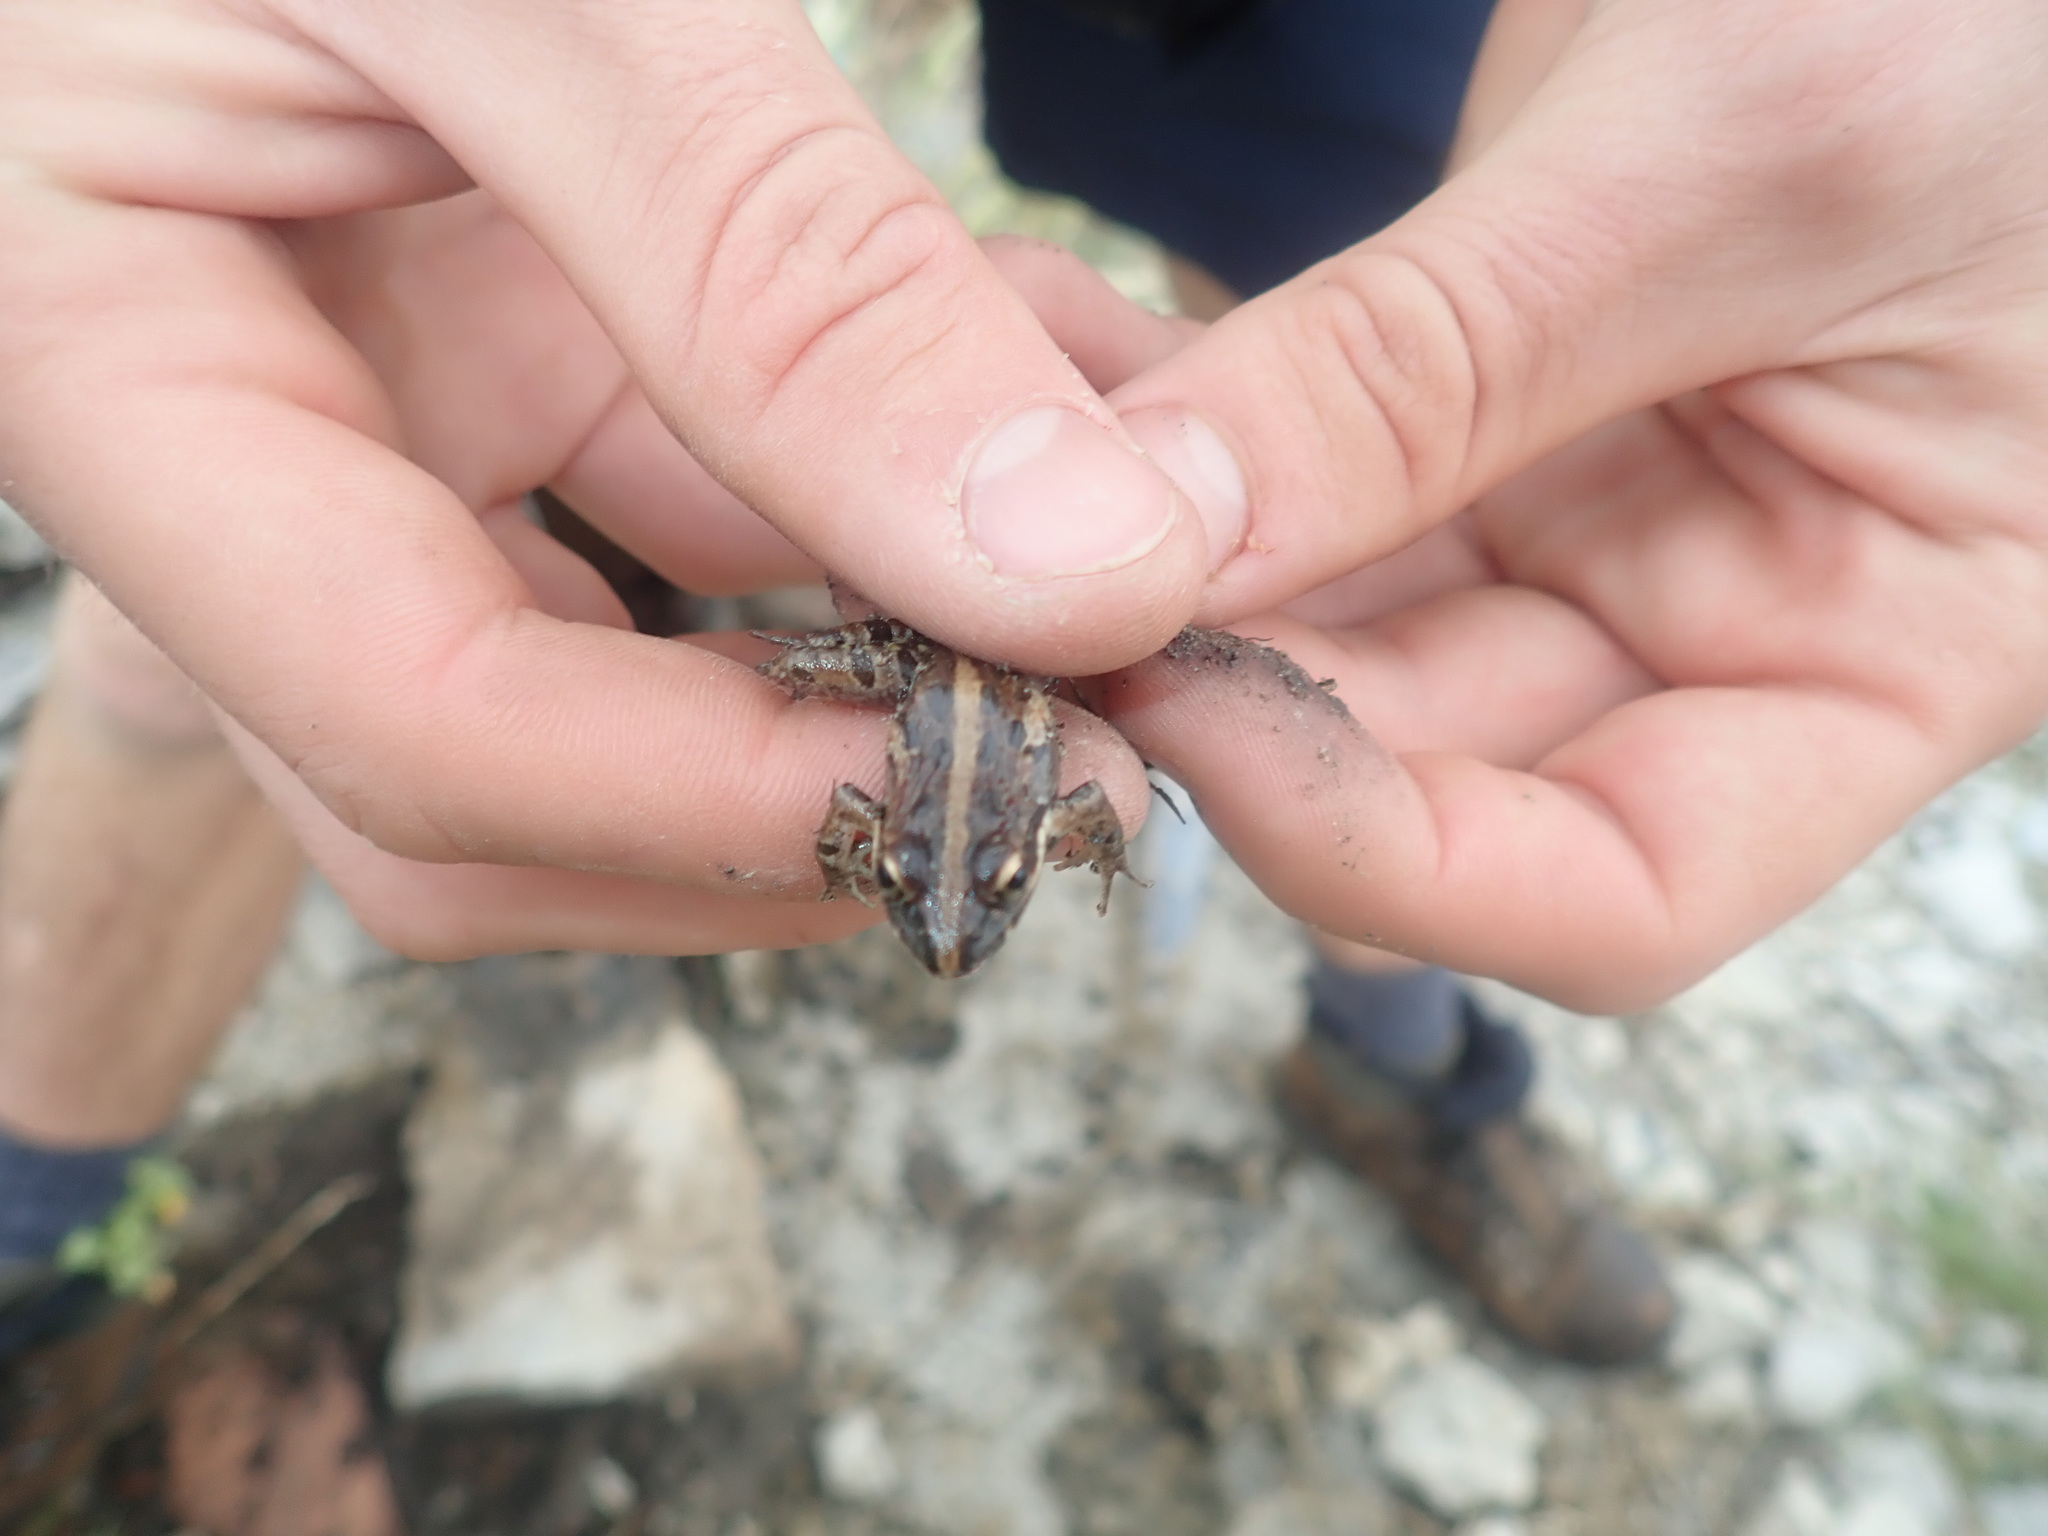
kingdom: Animalia
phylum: Chordata
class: Amphibia
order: Anura
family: Pyxicephalidae
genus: Strongylopus
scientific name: Strongylopus grayii
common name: Gray's stream frog
